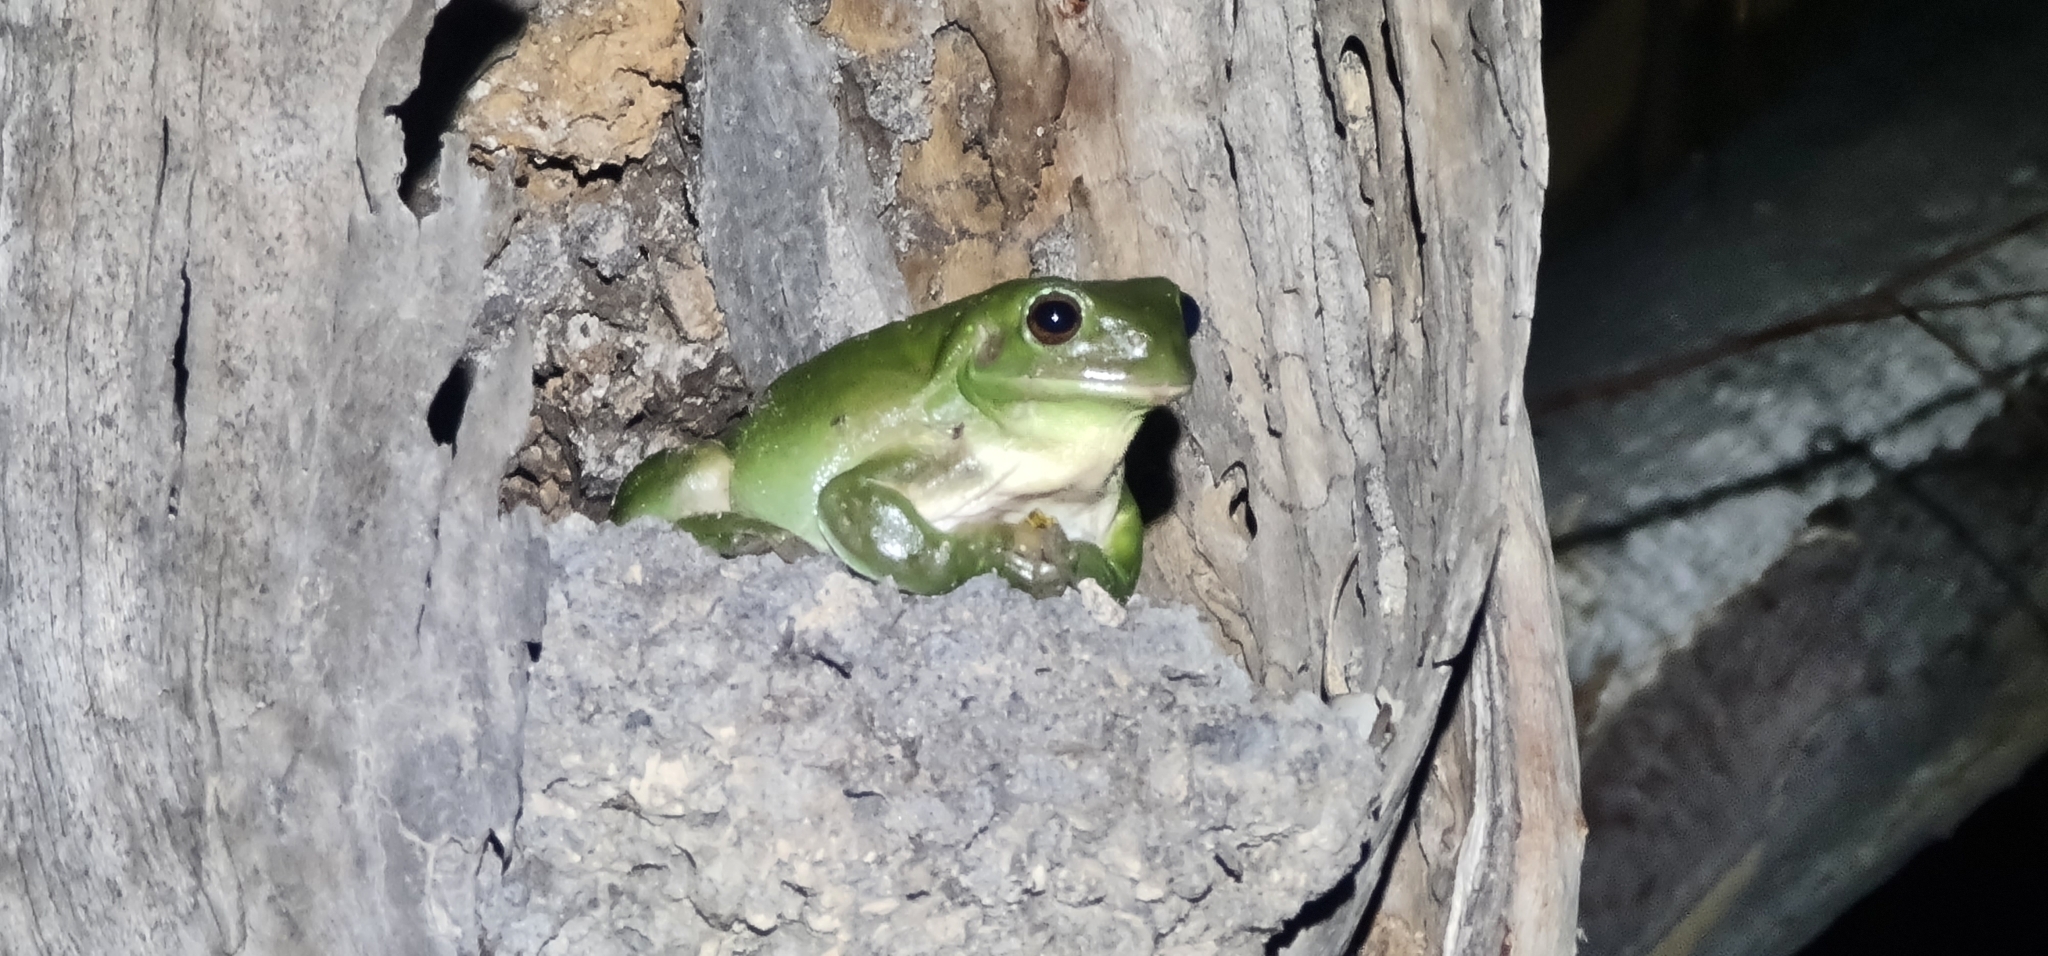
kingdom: Animalia
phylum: Chordata
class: Amphibia
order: Anura
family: Pelodryadidae
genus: Ranoidea
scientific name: Ranoidea caerulea
